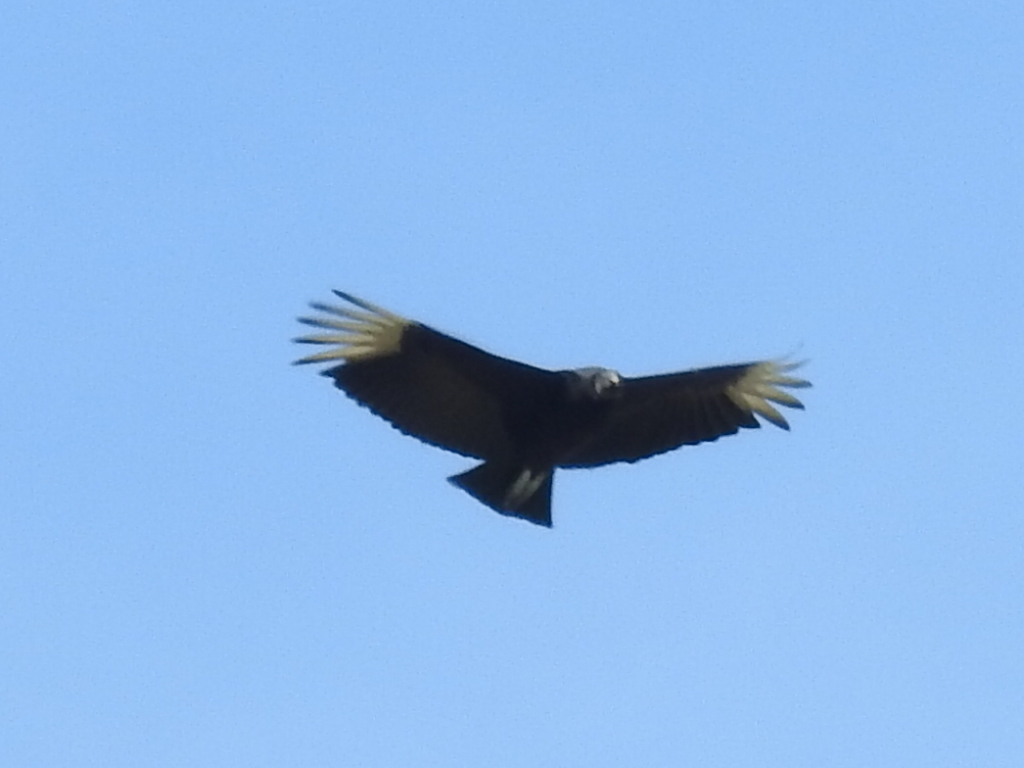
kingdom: Animalia
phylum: Chordata
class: Aves
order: Accipitriformes
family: Cathartidae
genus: Coragyps
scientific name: Coragyps atratus
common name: Black vulture
